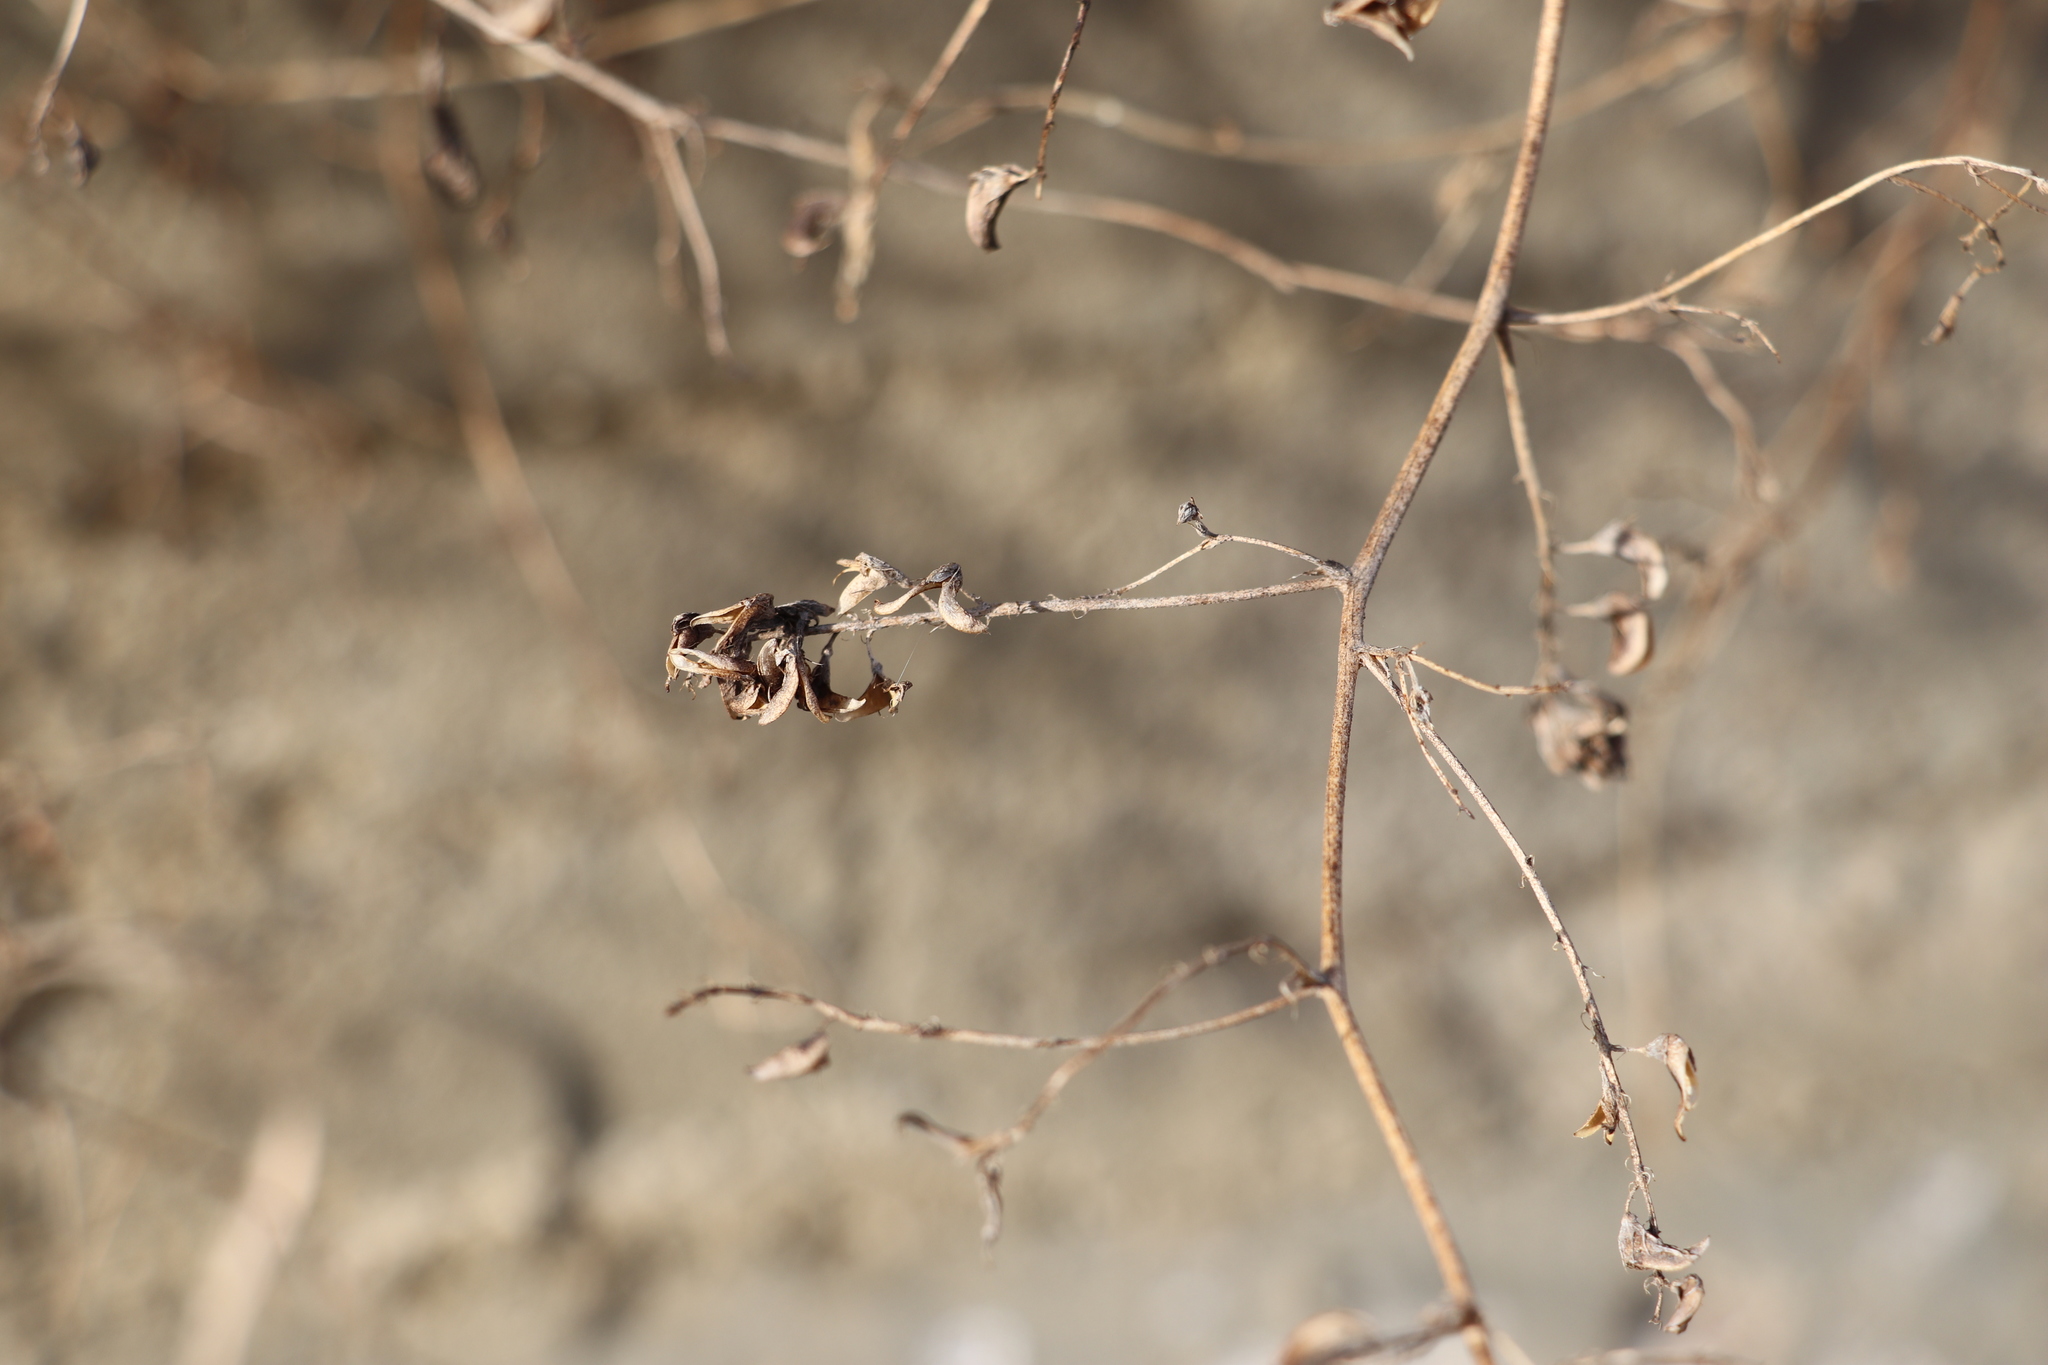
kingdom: Plantae
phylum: Tracheophyta
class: Magnoliopsida
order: Fabales
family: Fabaceae
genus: Medicago
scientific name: Medicago falcata
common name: Sickle medick
